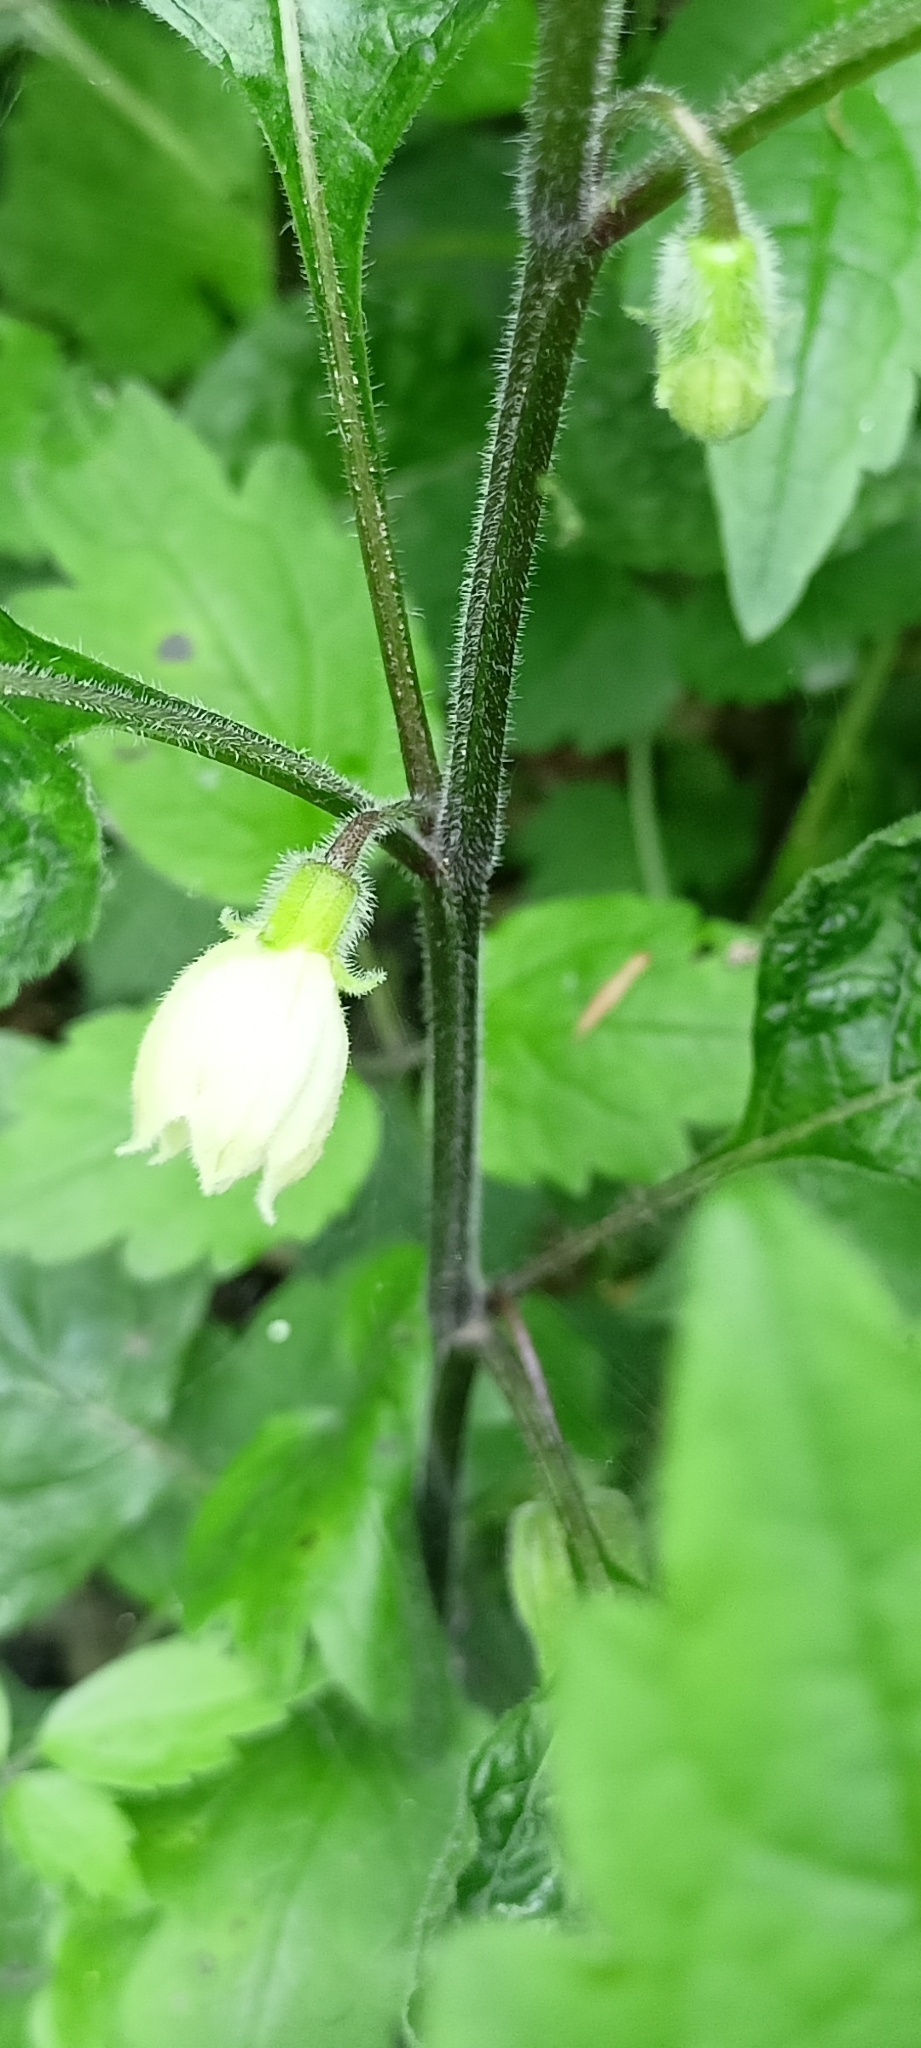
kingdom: Plantae
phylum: Tracheophyta
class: Magnoliopsida
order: Solanales
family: Solanaceae
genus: Alkekengi
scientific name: Alkekengi officinarum
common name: Japanese-lantern
